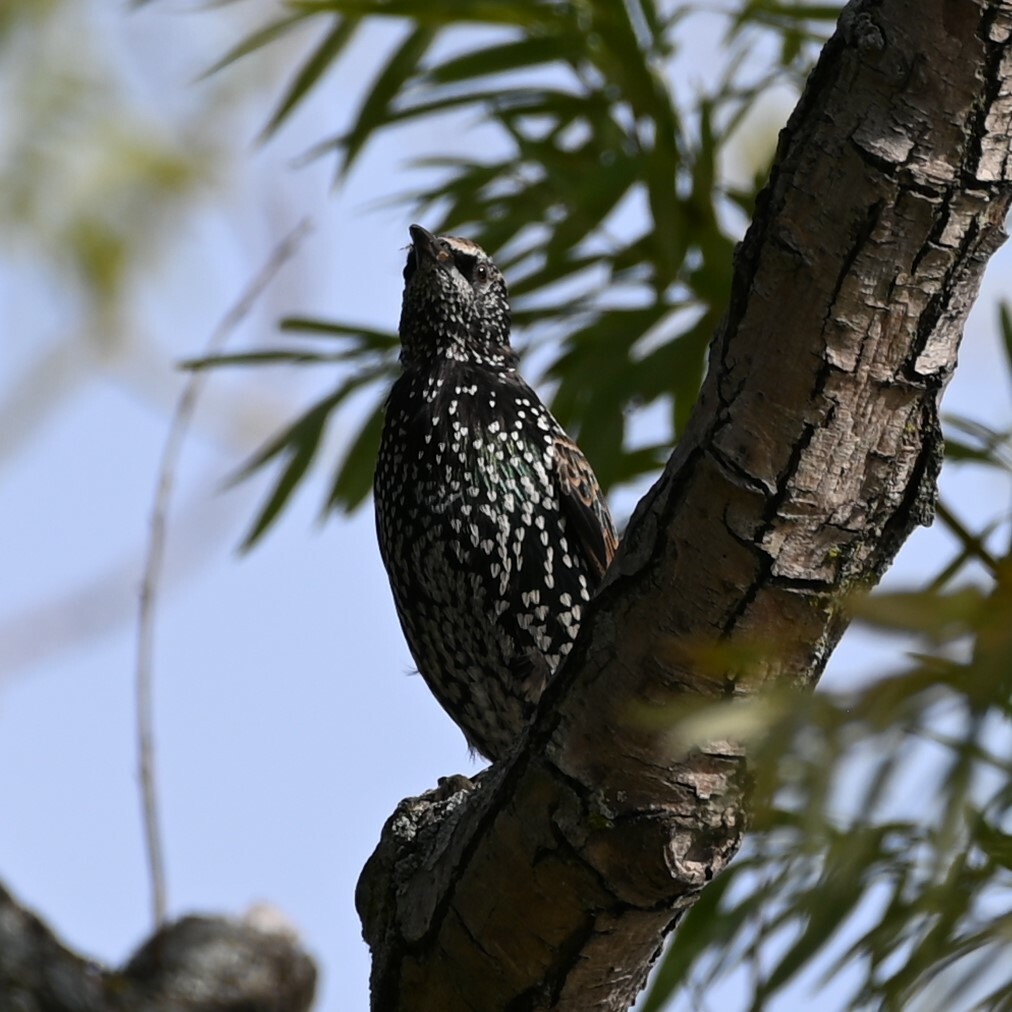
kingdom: Animalia
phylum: Chordata
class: Aves
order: Passeriformes
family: Sturnidae
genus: Sturnus
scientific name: Sturnus vulgaris
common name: Common starling
